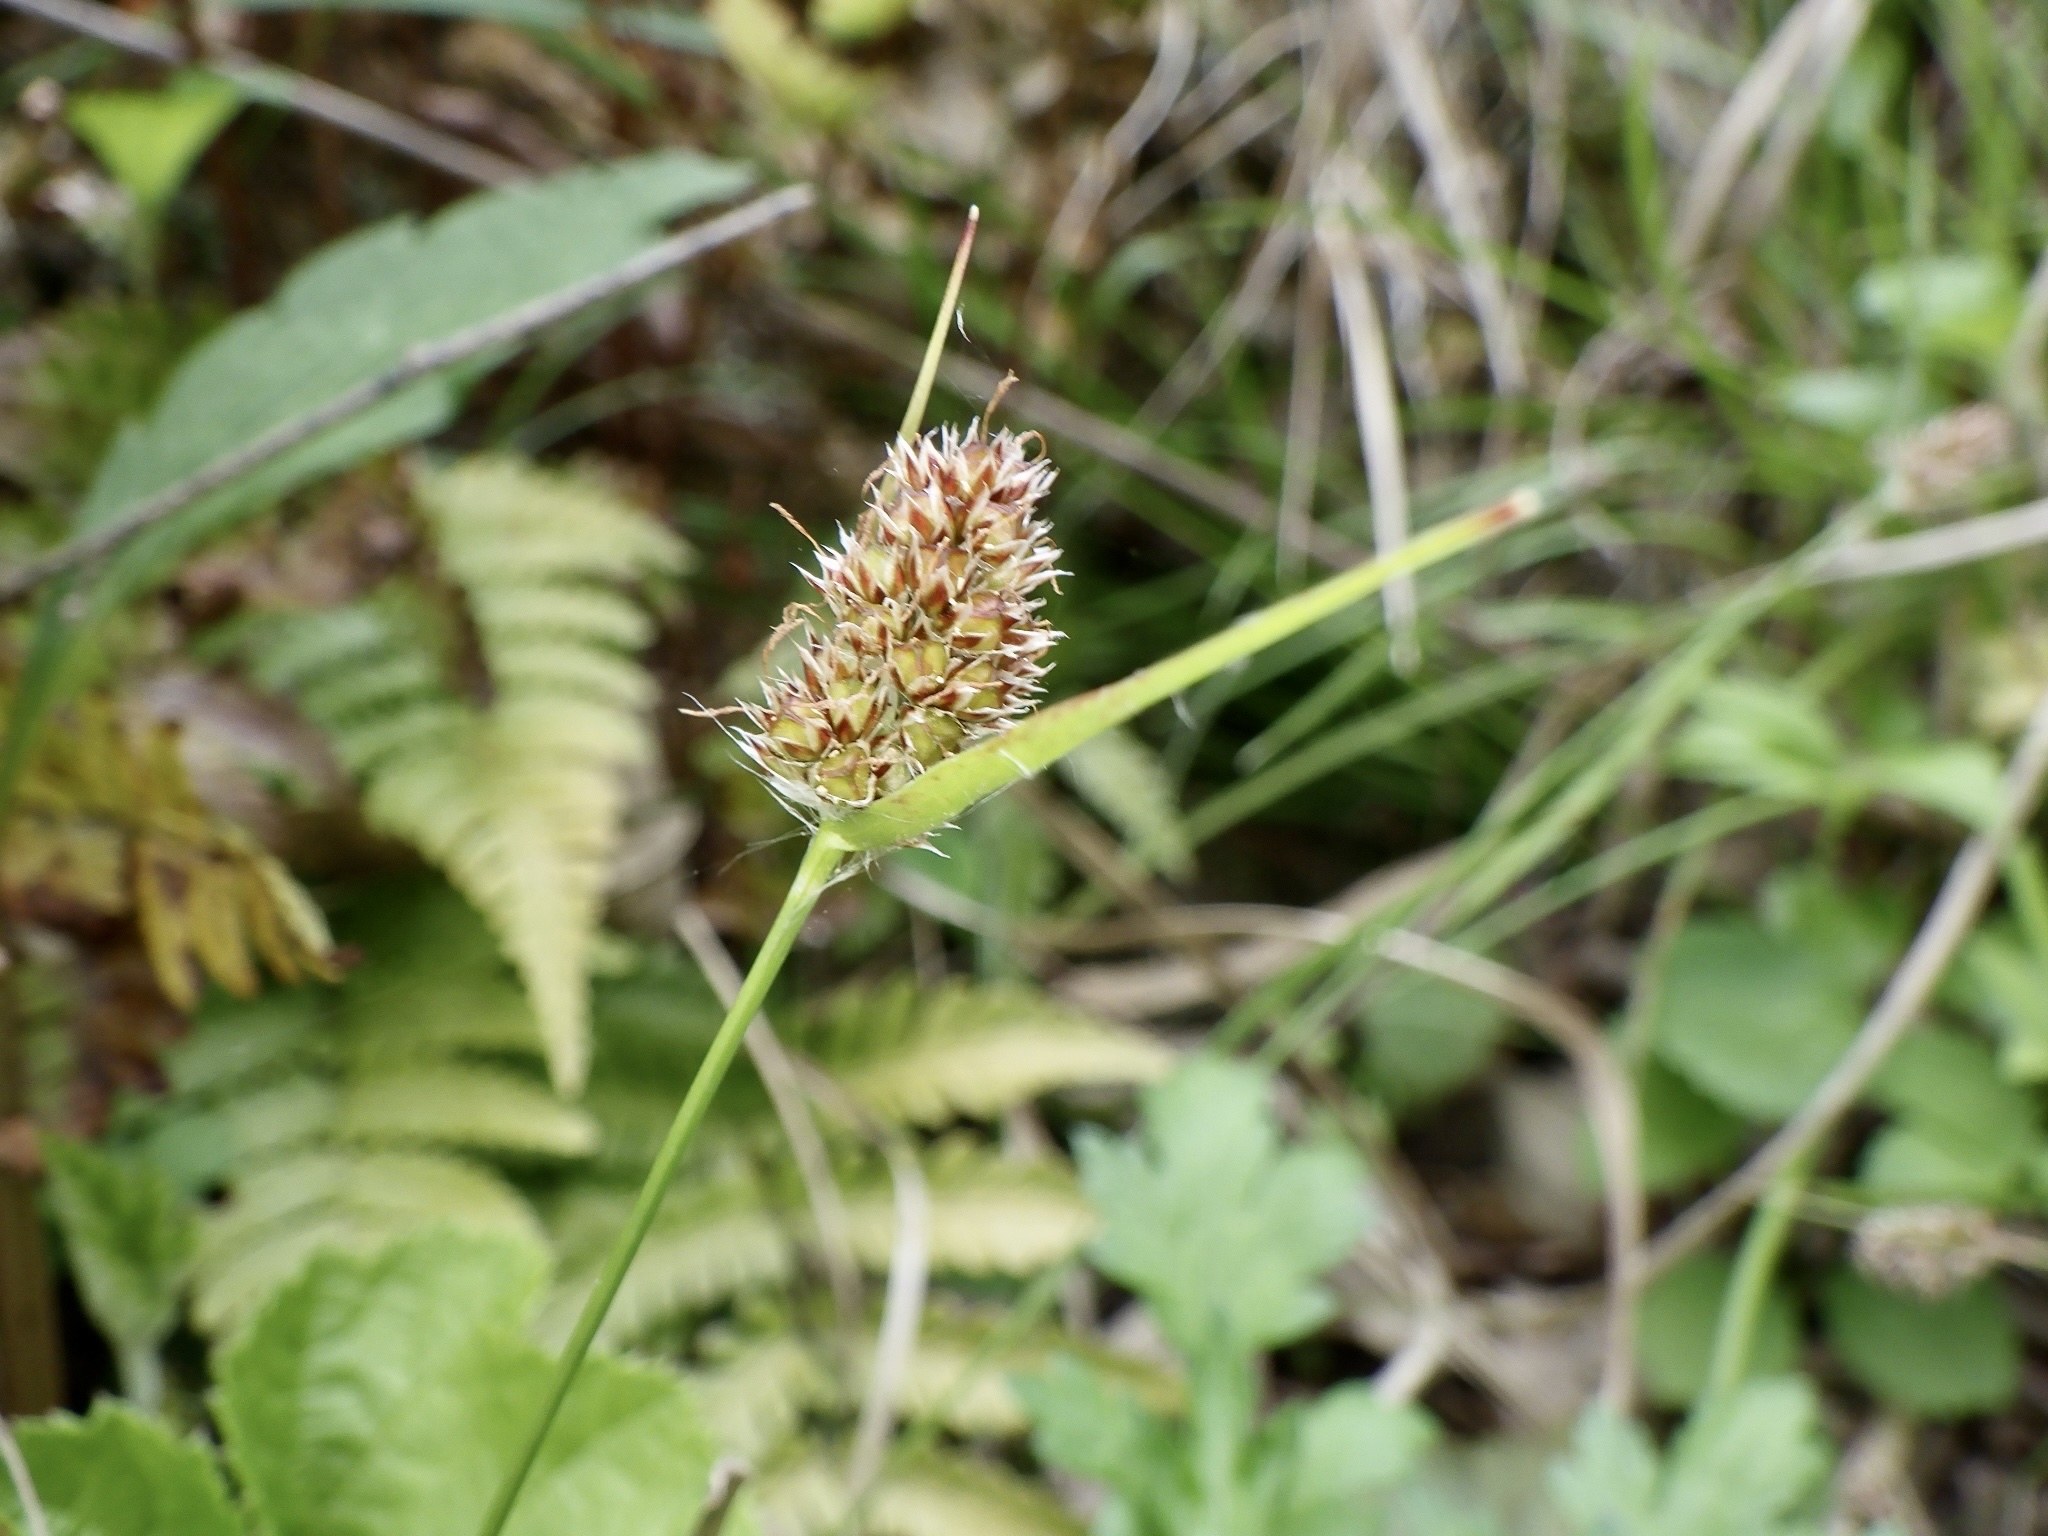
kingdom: Plantae
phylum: Tracheophyta
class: Liliopsida
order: Poales
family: Juncaceae
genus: Luzula
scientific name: Luzula capitata
